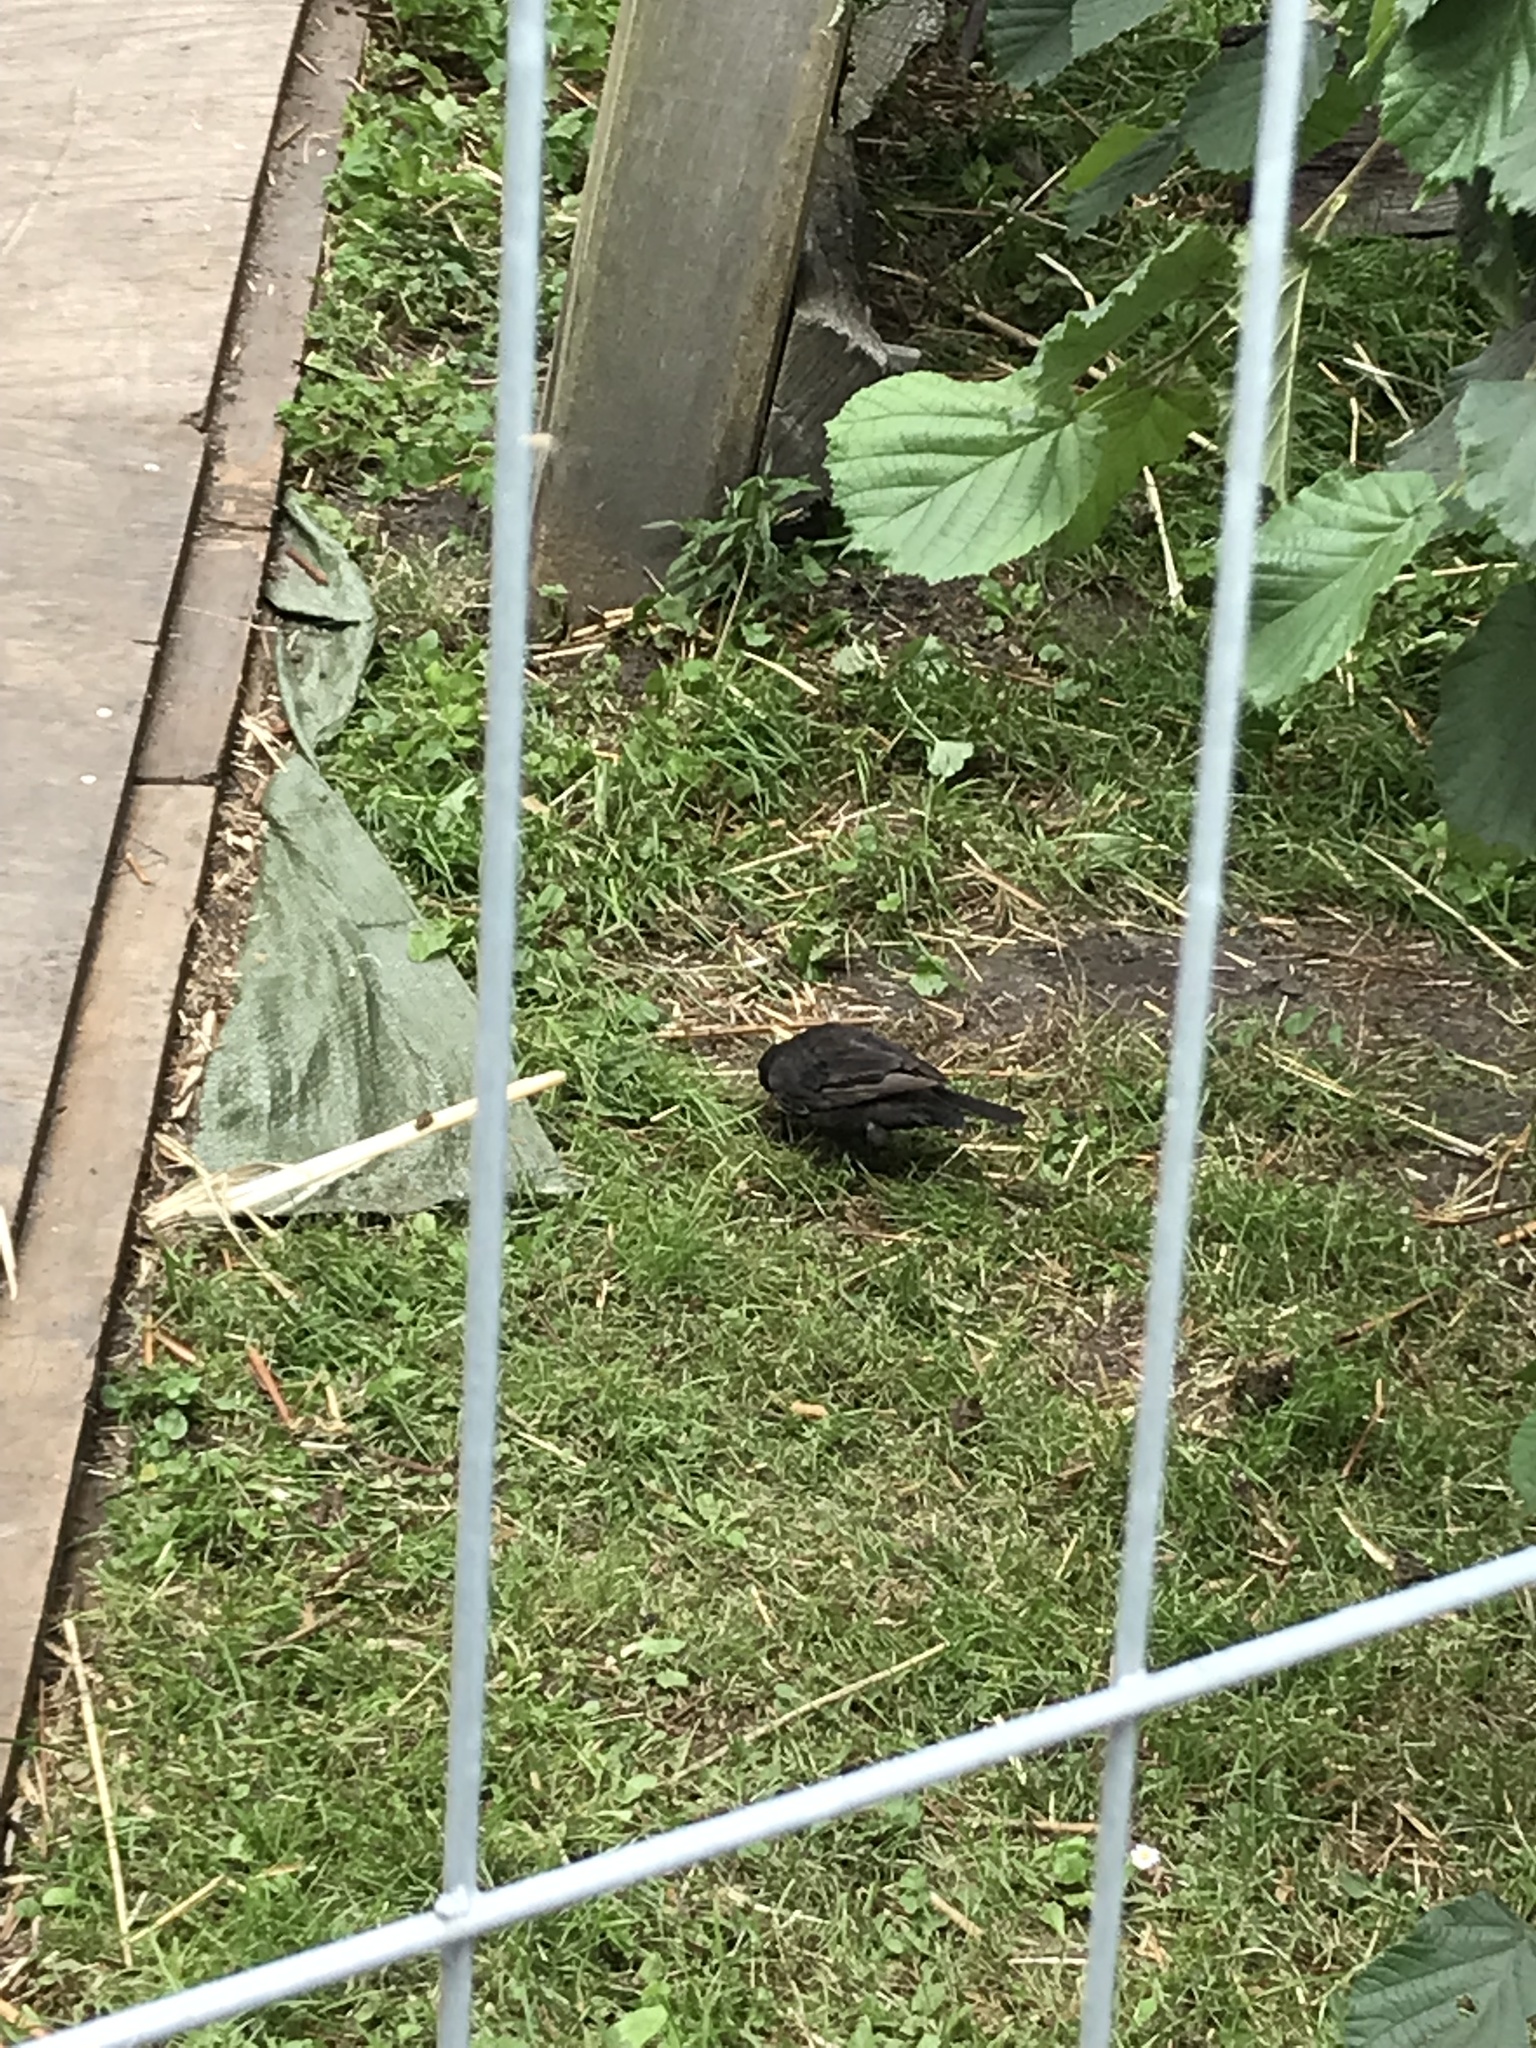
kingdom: Animalia
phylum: Chordata
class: Aves
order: Passeriformes
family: Turdidae
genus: Turdus
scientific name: Turdus merula
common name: Common blackbird
